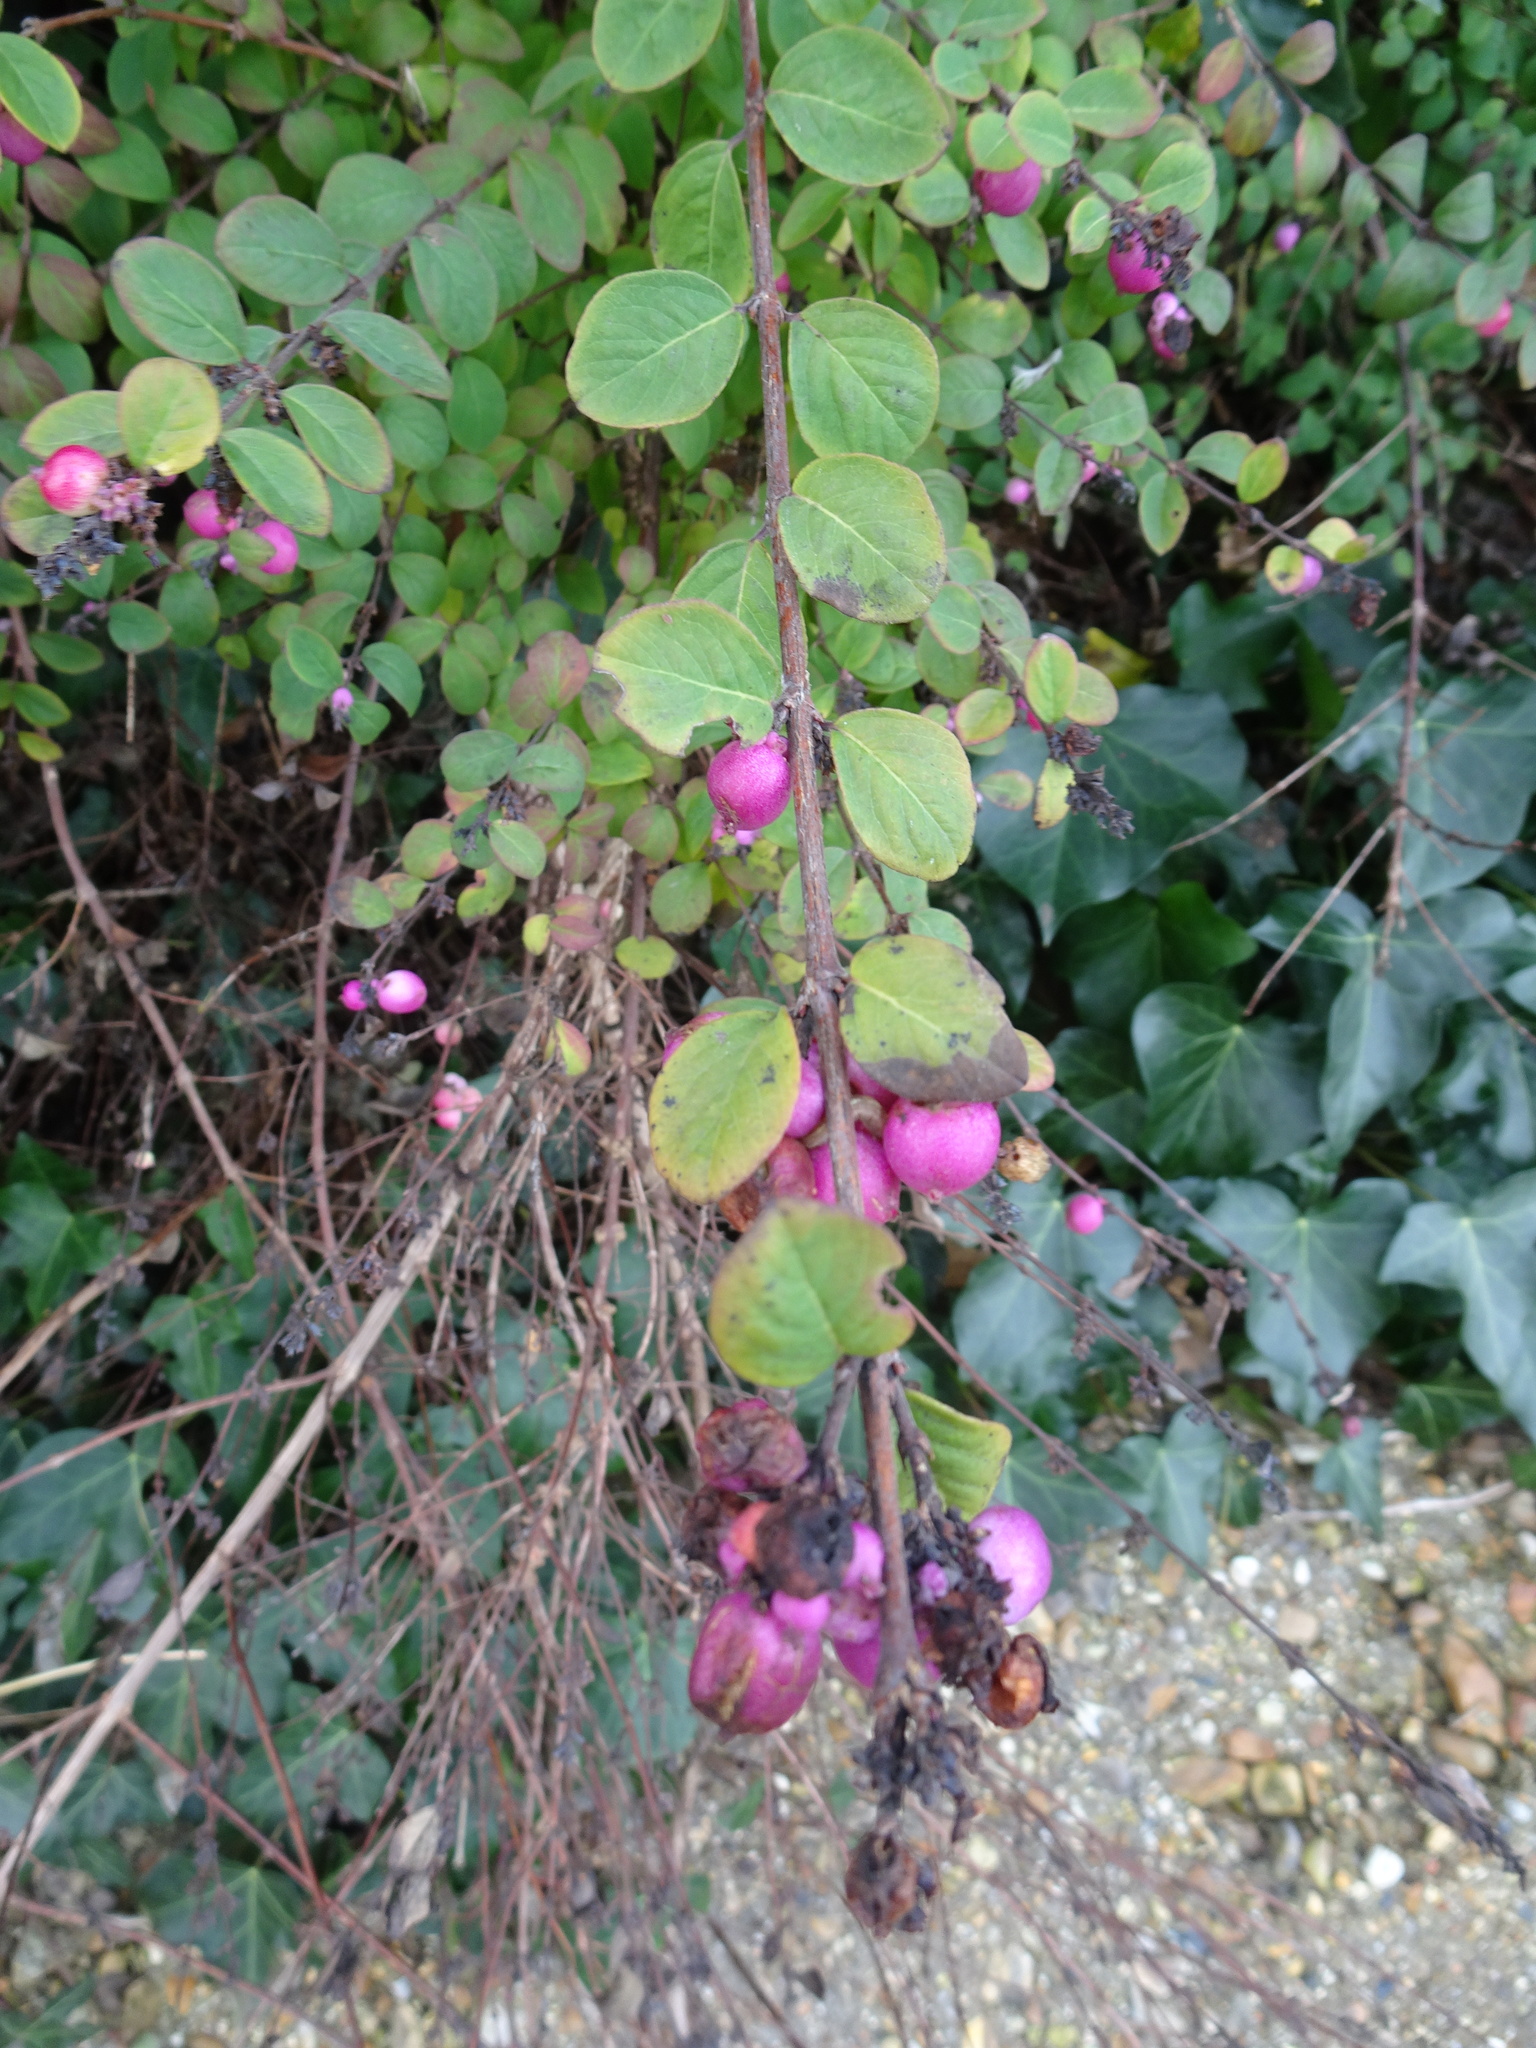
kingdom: Plantae
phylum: Tracheophyta
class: Magnoliopsida
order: Dipsacales
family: Caprifoliaceae
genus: Symphoricarpos
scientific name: Symphoricarpos chenaultii
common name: Hybrid coralberry
